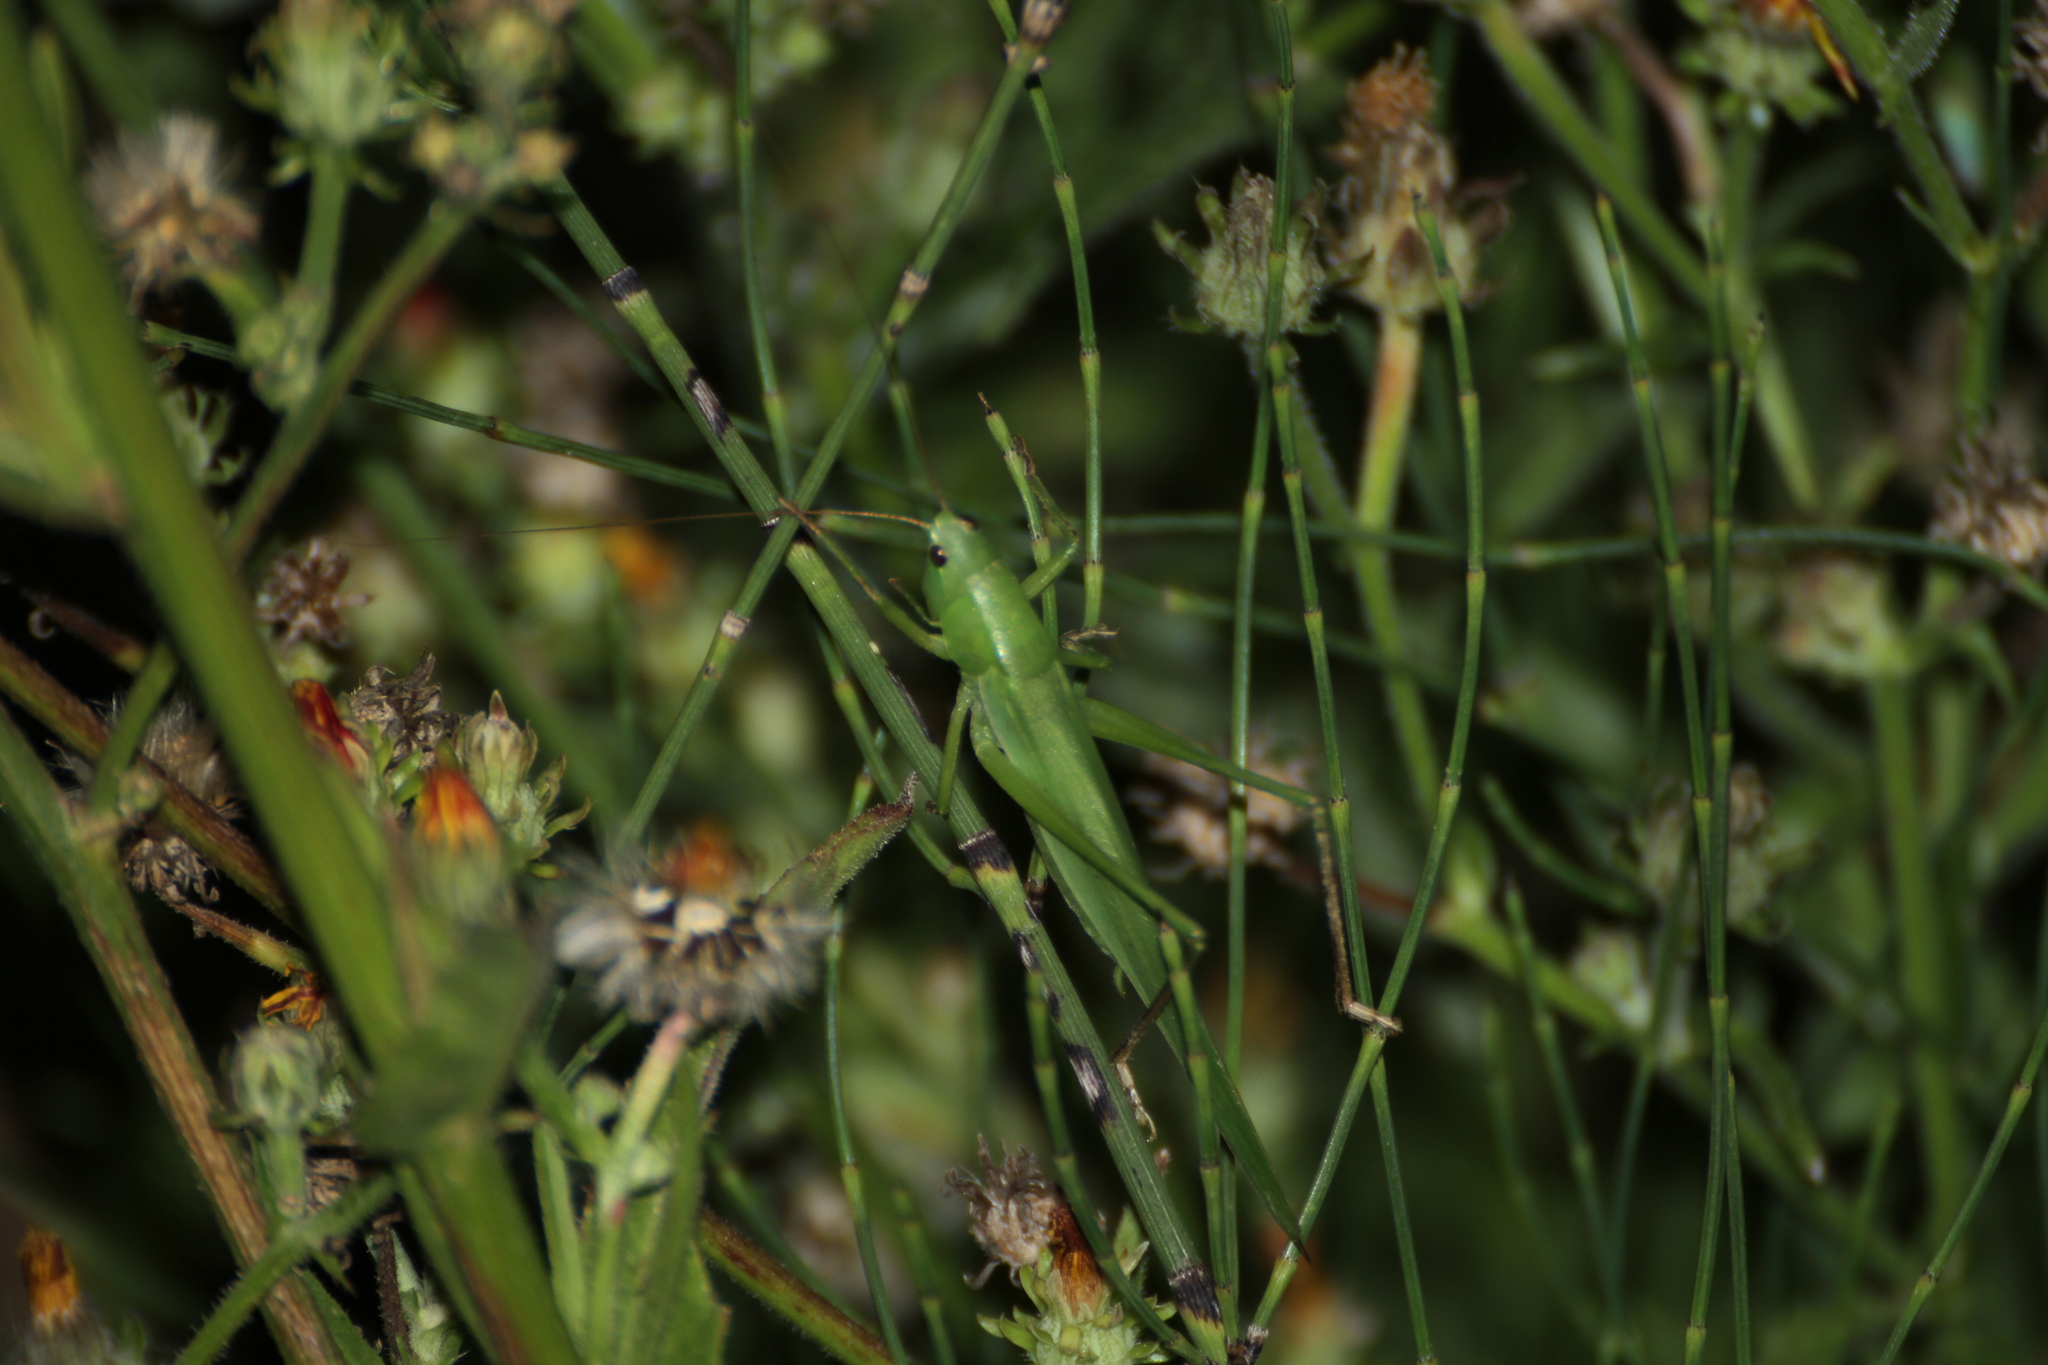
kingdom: Animalia
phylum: Arthropoda
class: Insecta
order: Orthoptera
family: Tettigoniidae
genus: Ruspolia
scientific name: Ruspolia nitidula
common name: Large conehead
